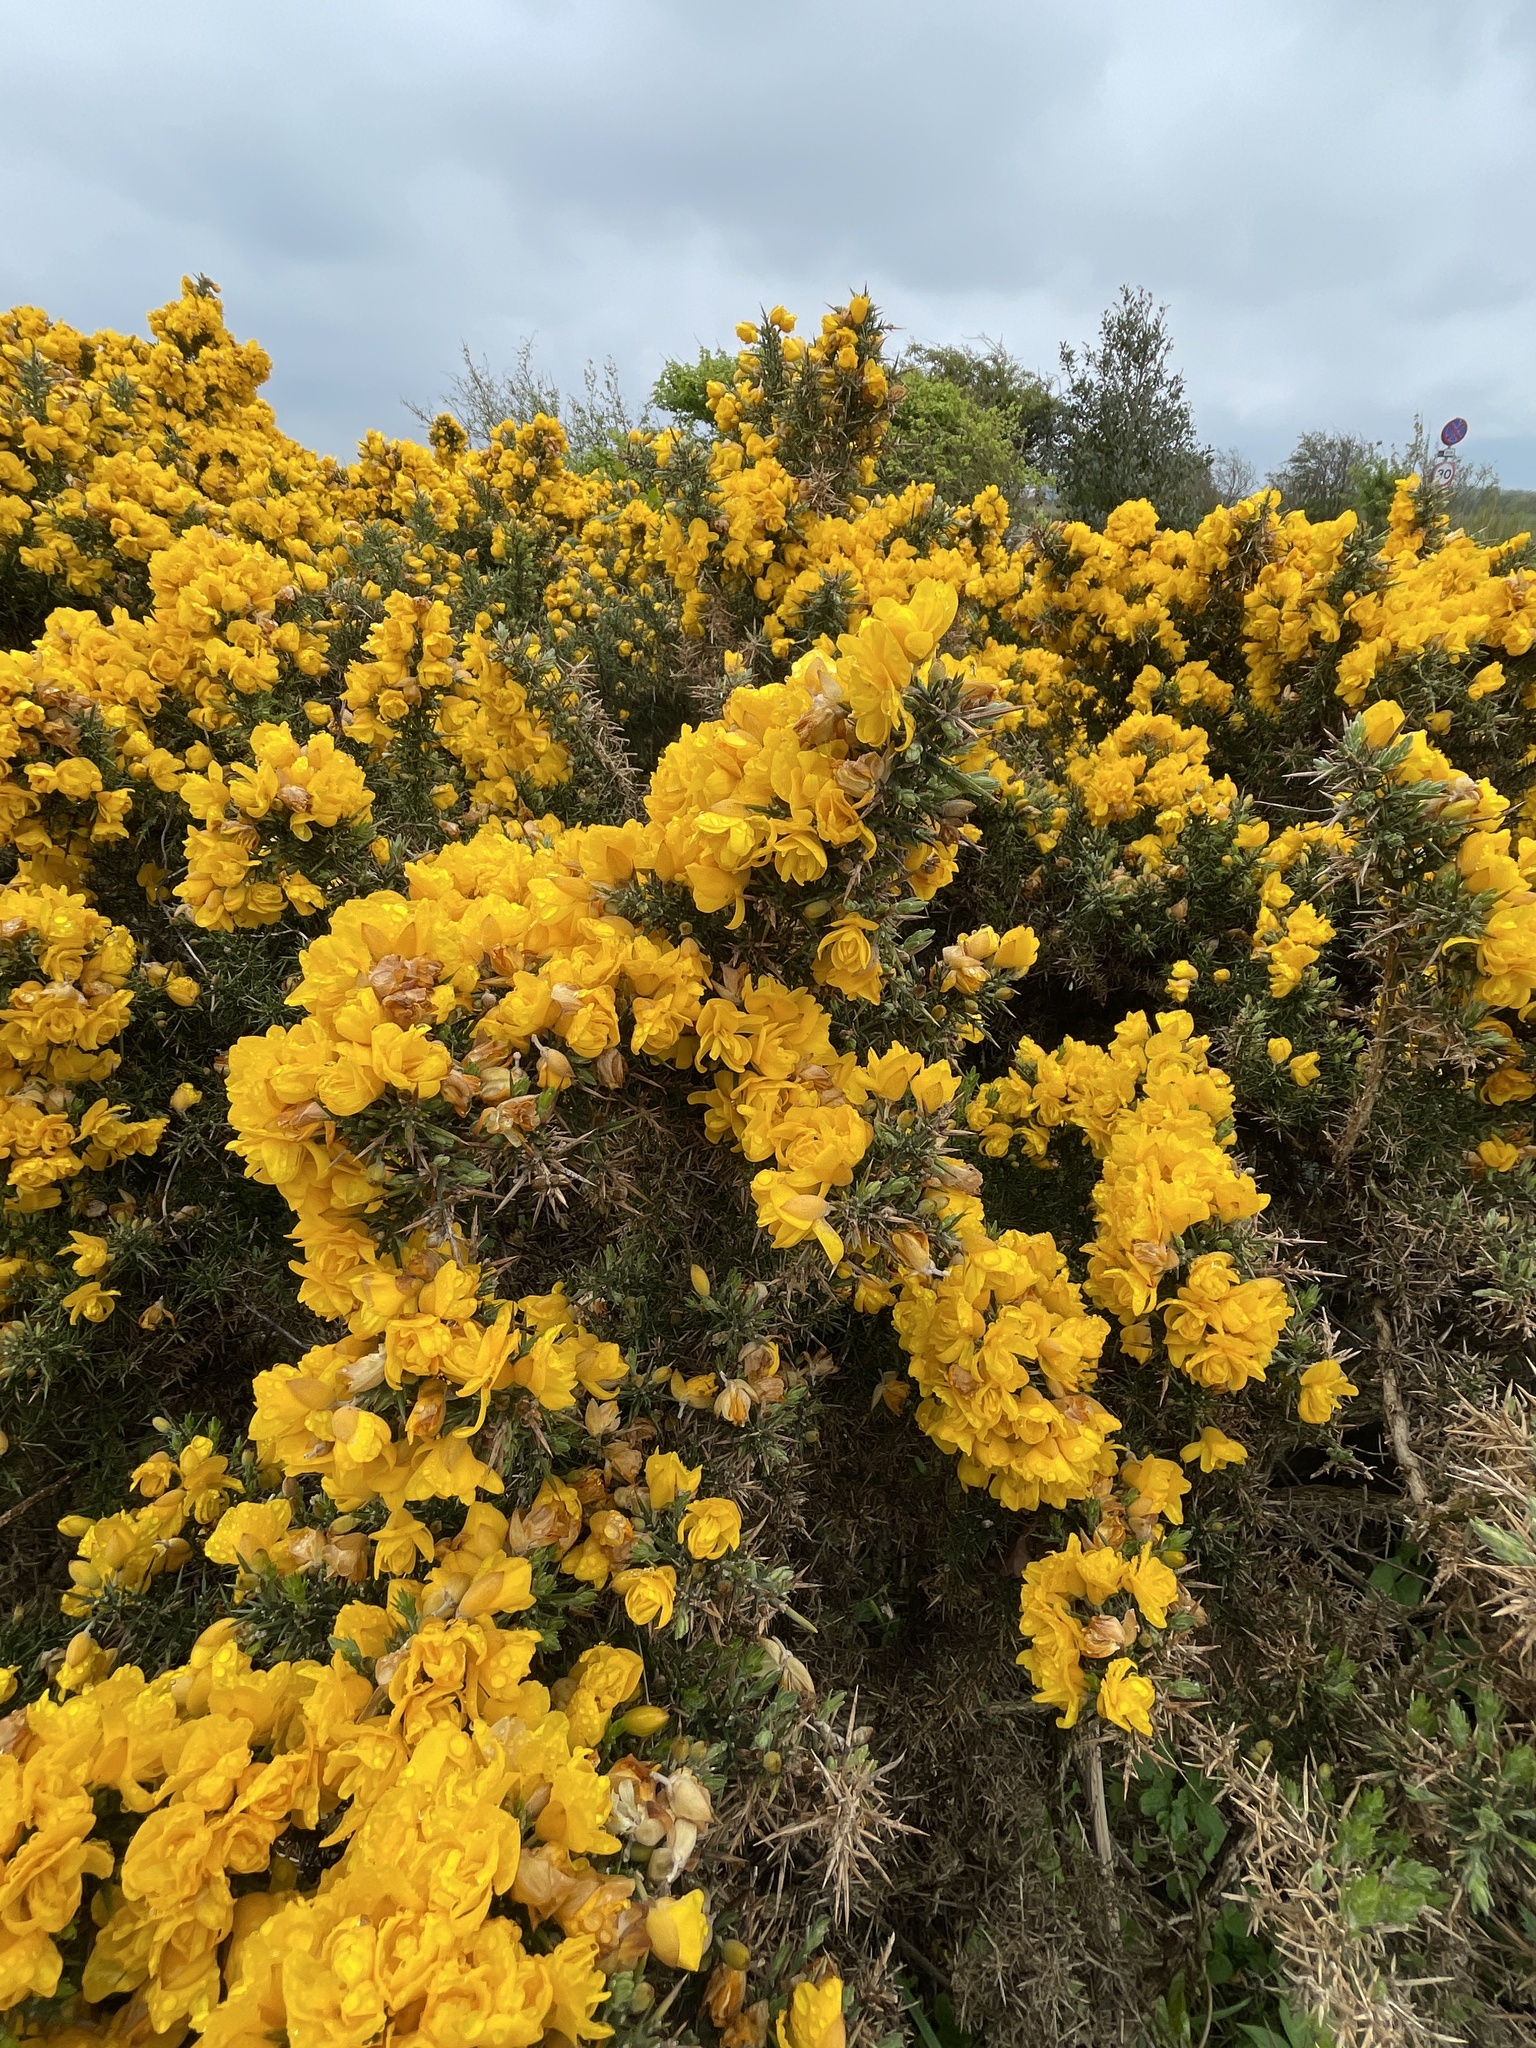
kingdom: Plantae
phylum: Tracheophyta
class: Magnoliopsida
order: Fabales
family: Fabaceae
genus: Ulex
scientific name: Ulex europaeus
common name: Common gorse
